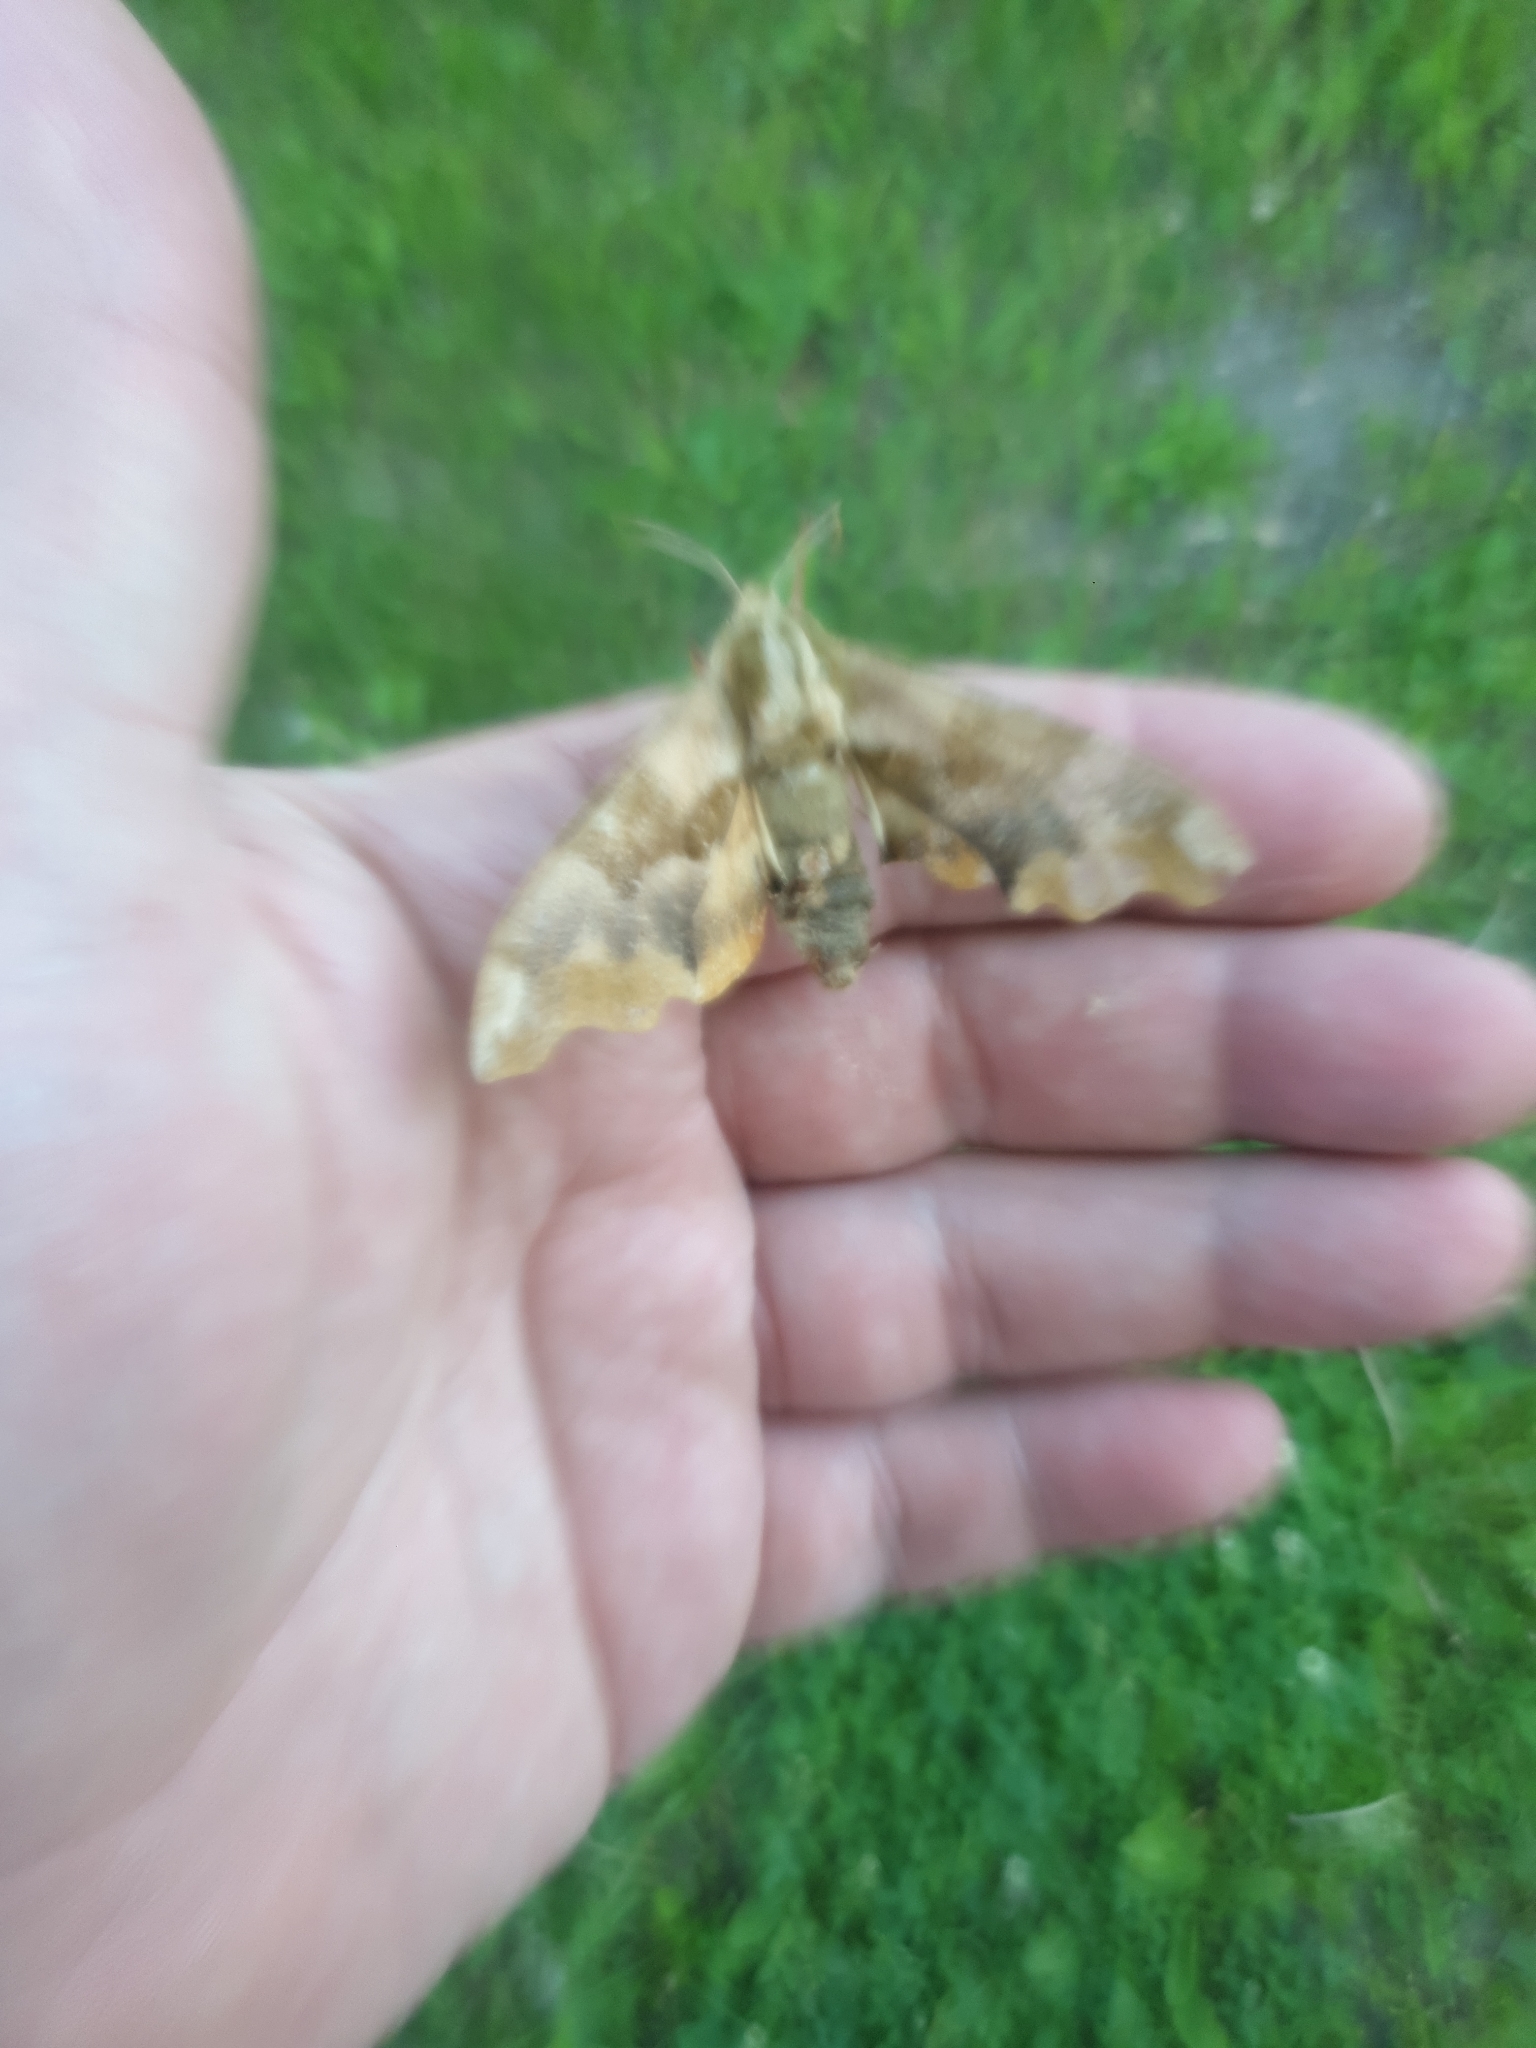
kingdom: Animalia
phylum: Arthropoda
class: Insecta
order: Lepidoptera
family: Sphingidae
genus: Mimas
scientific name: Mimas tiliae
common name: Lime hawk-moth
